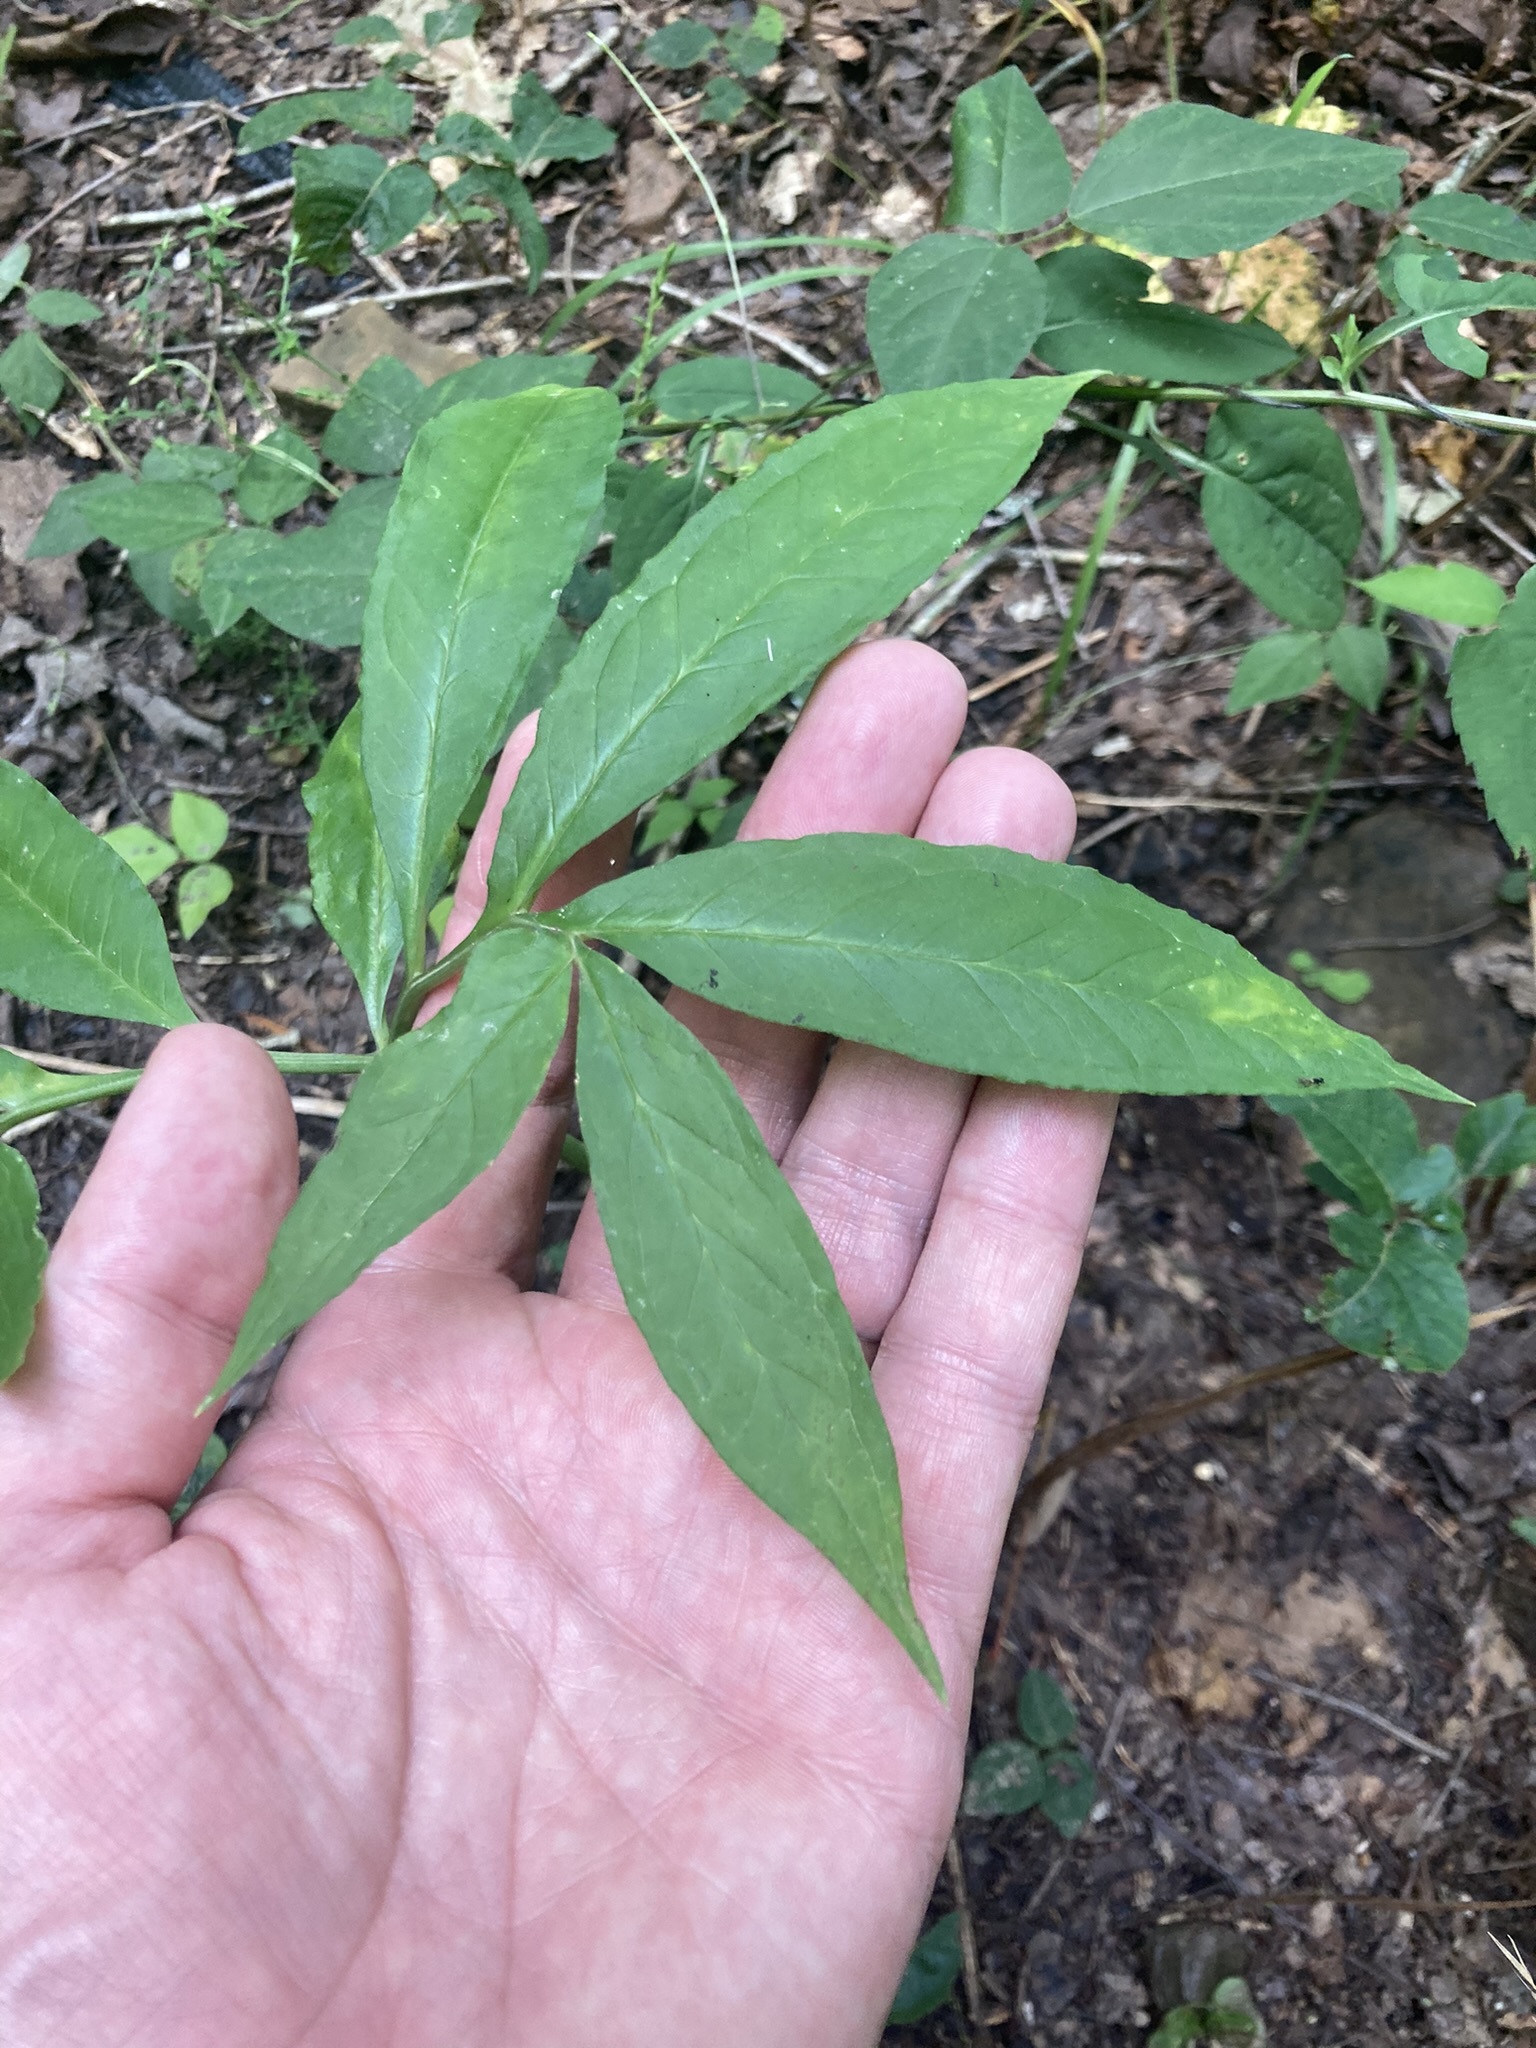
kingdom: Plantae
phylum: Tracheophyta
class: Liliopsida
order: Alismatales
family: Araceae
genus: Arisaema
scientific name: Arisaema dracontium
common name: Dragon-arum
